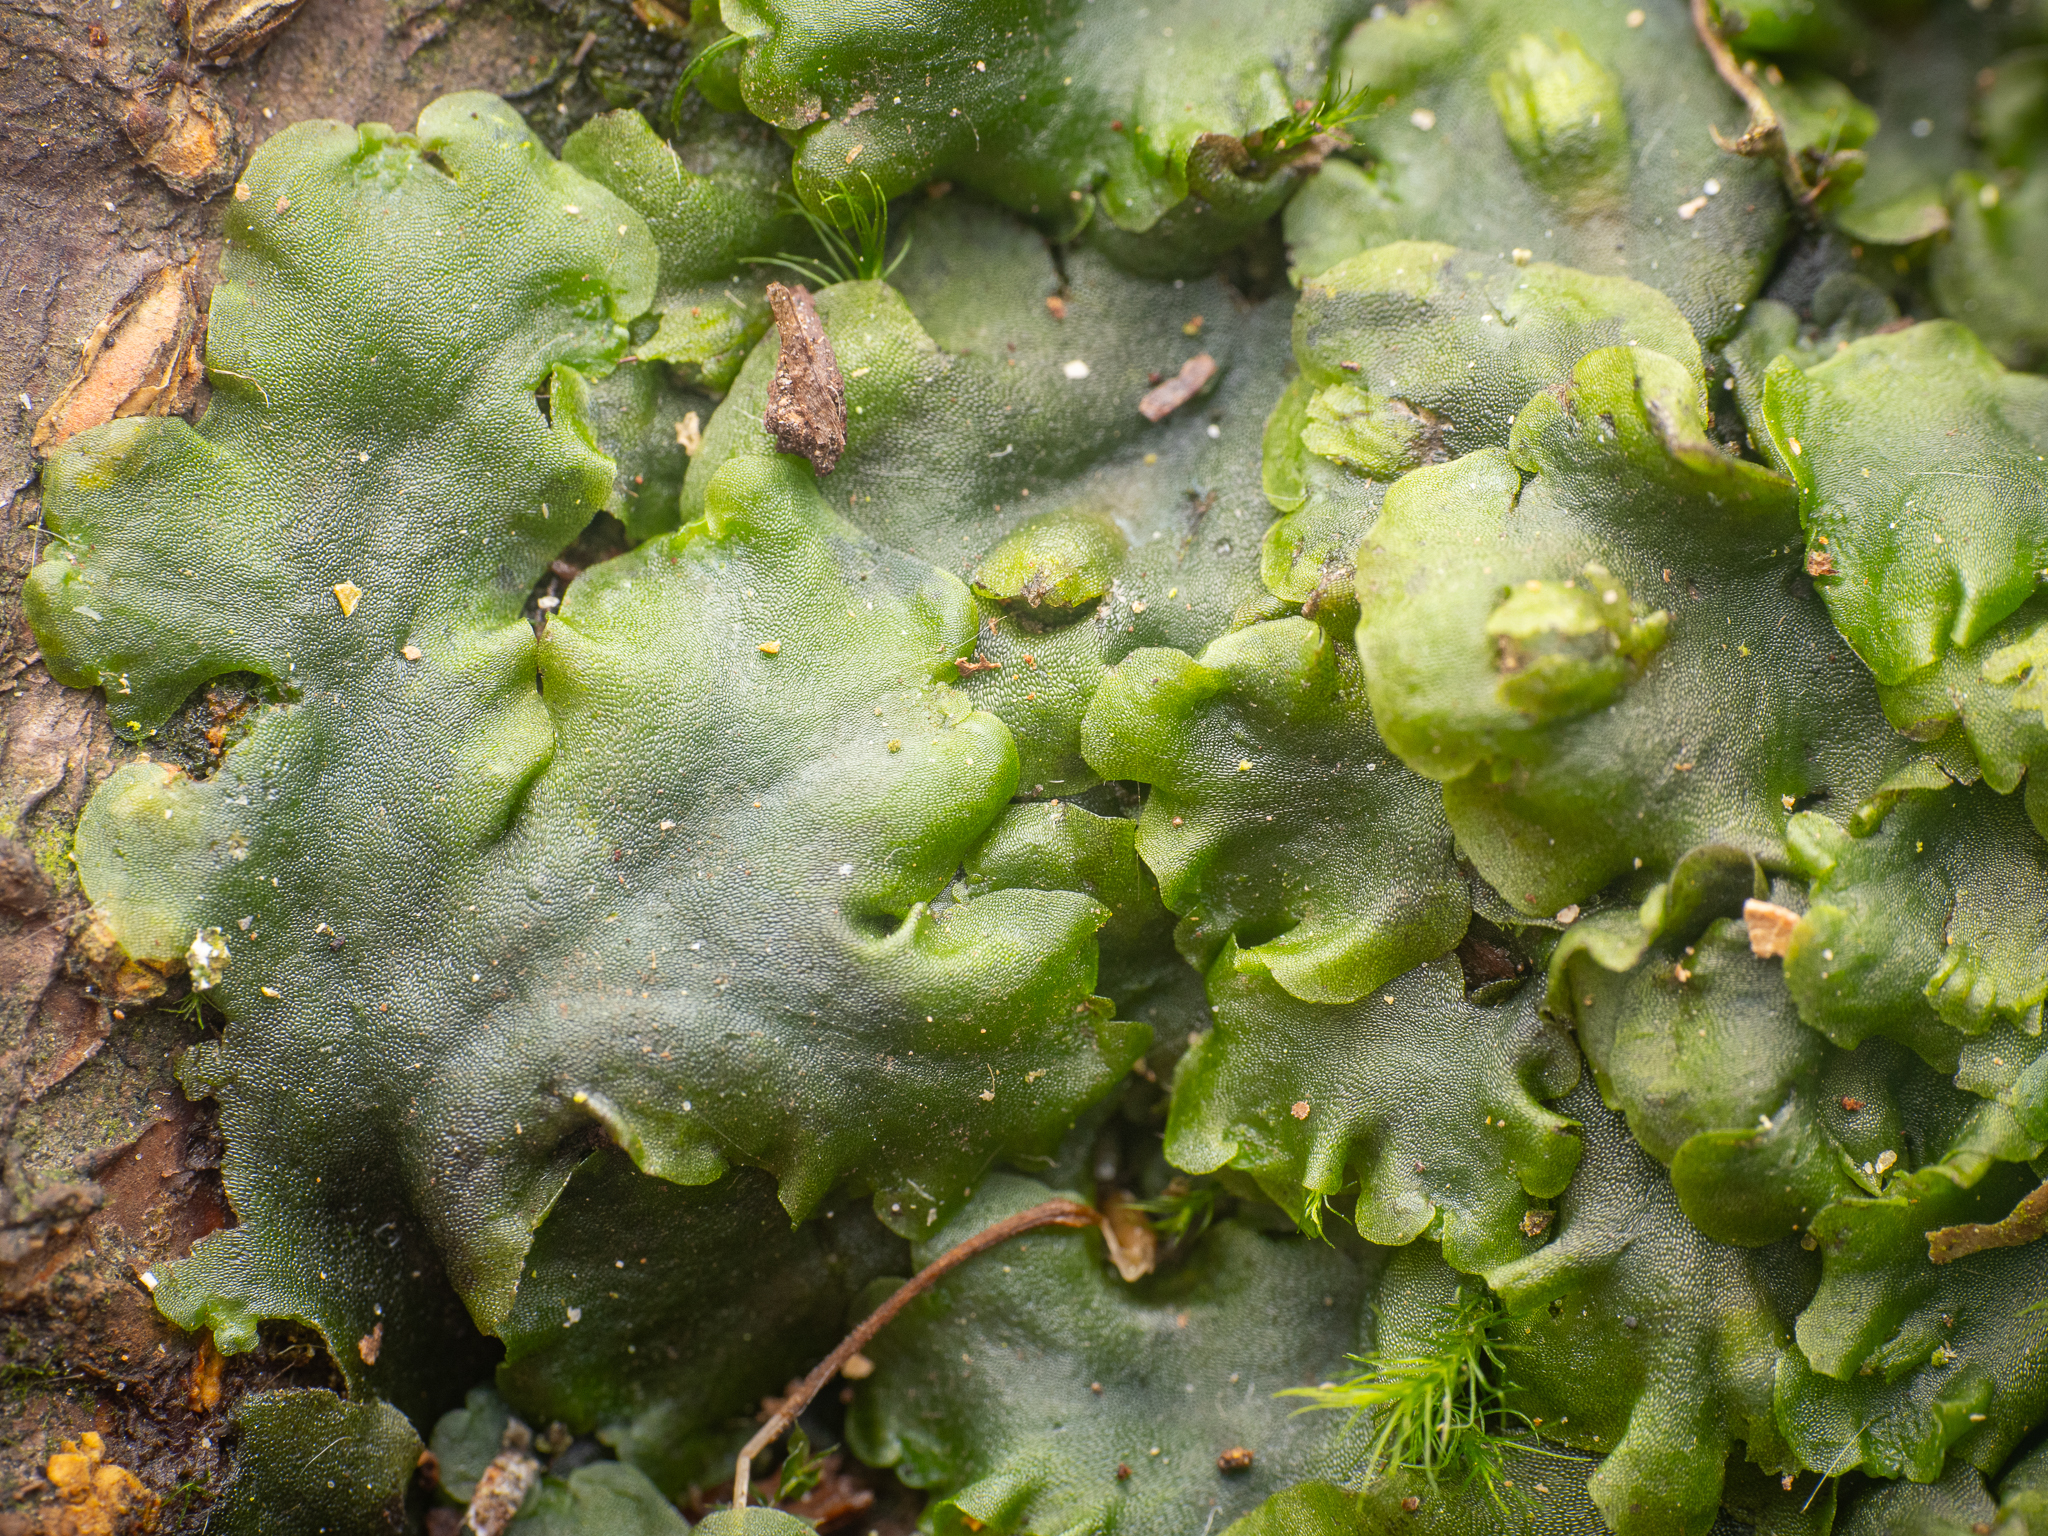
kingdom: Plantae
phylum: Marchantiophyta
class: Jungermanniopsida
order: Pelliales
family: Pelliaceae
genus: Pellia
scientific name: Pellia epiphylla
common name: Common pellia
